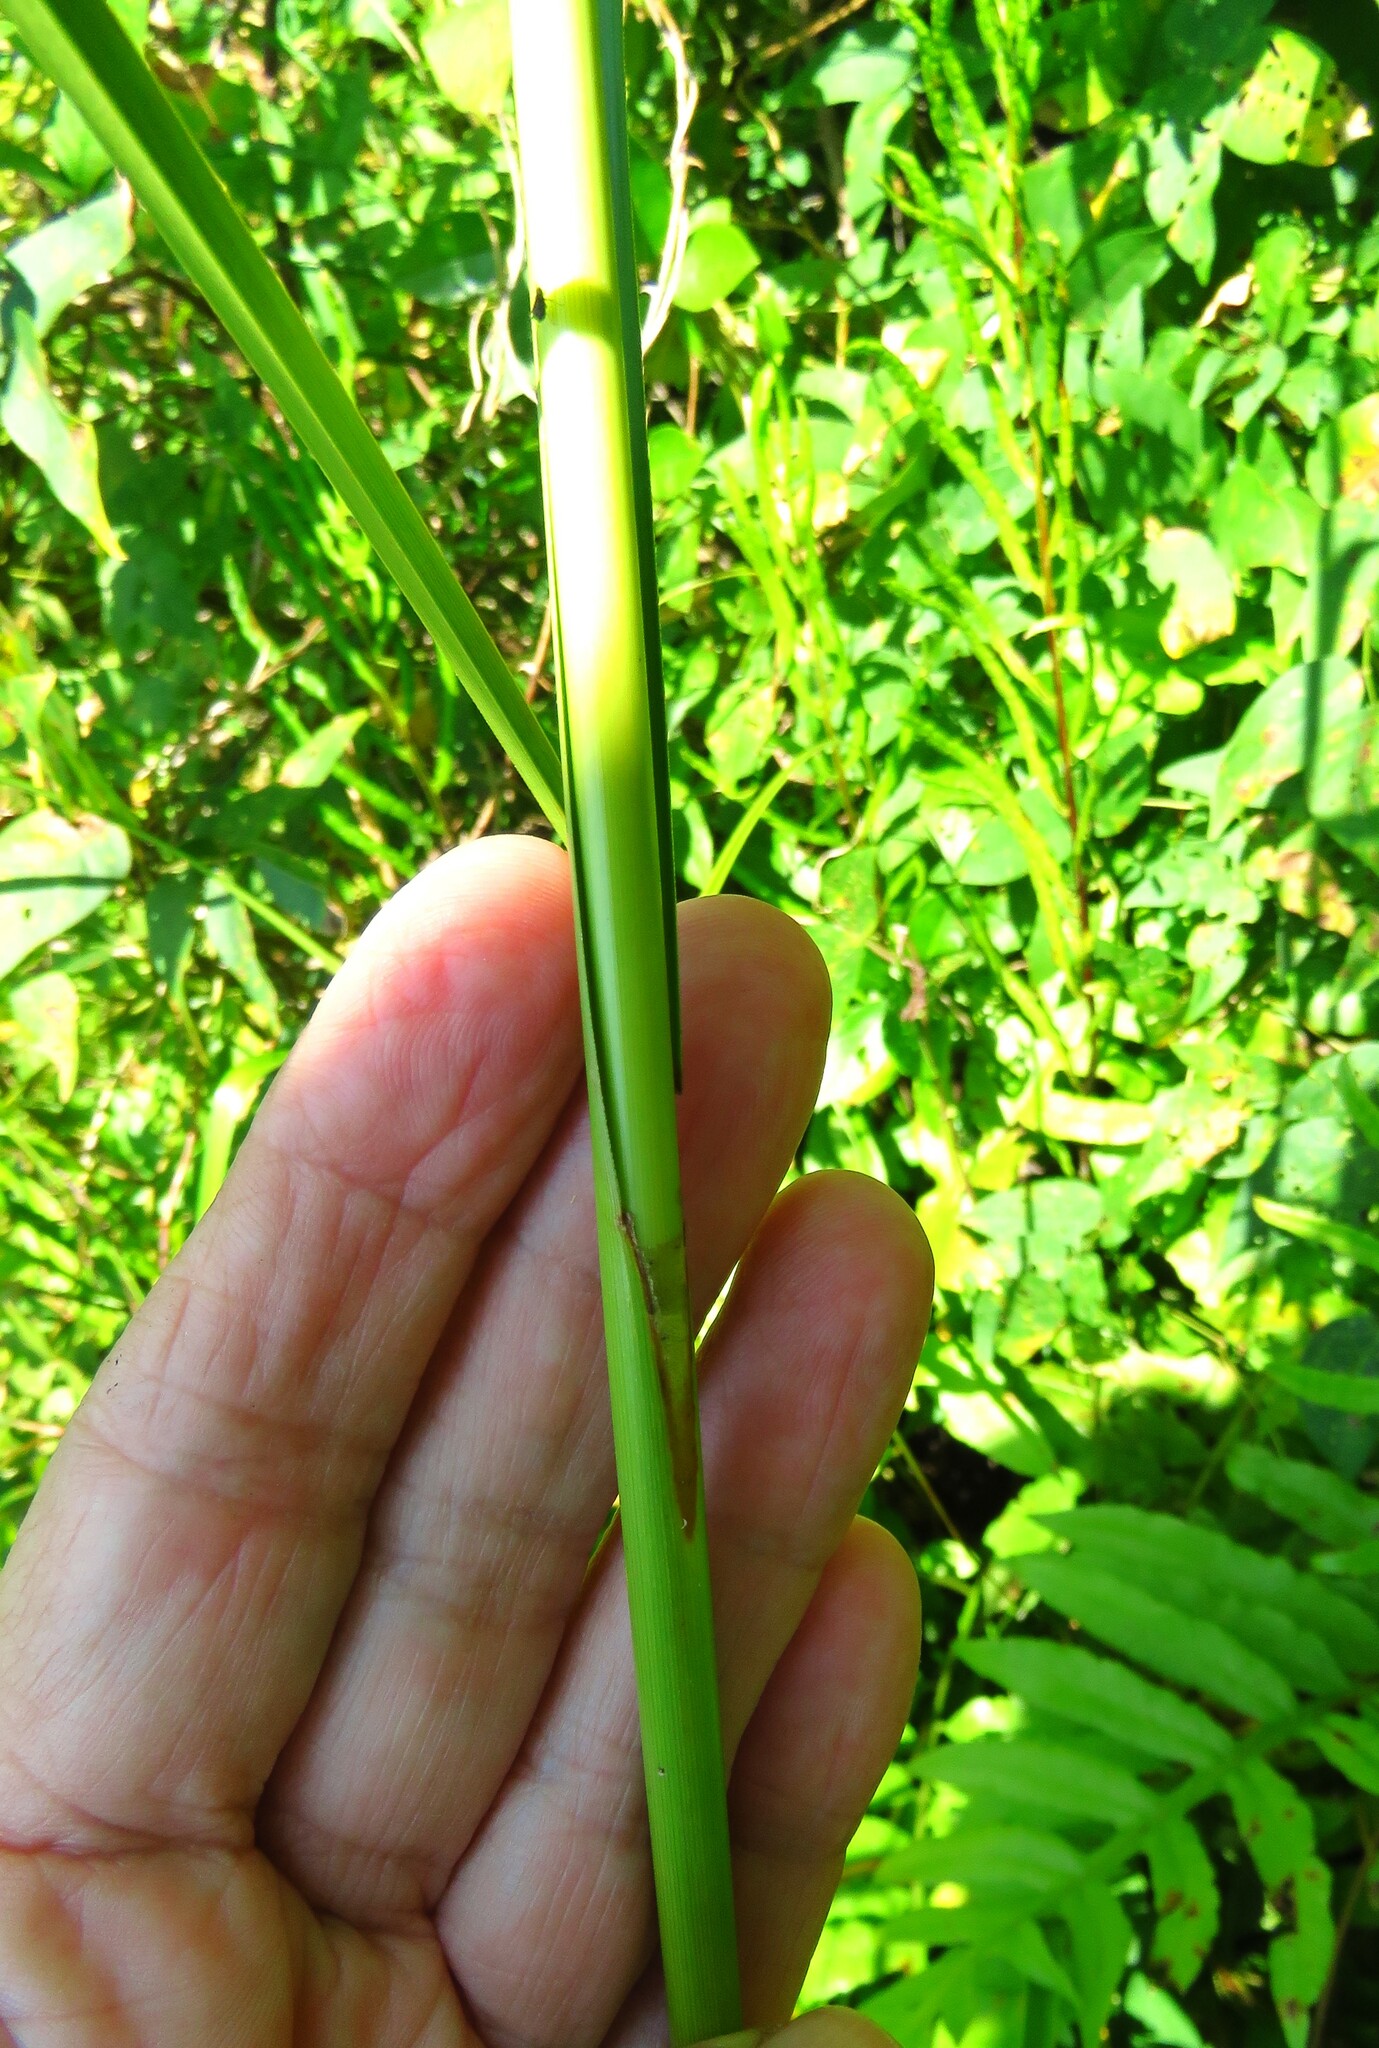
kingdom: Plantae
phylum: Tracheophyta
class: Liliopsida
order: Poales
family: Cyperaceae
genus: Scirpus
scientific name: Scirpus cyperinus
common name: Black-sheathed bulrush
